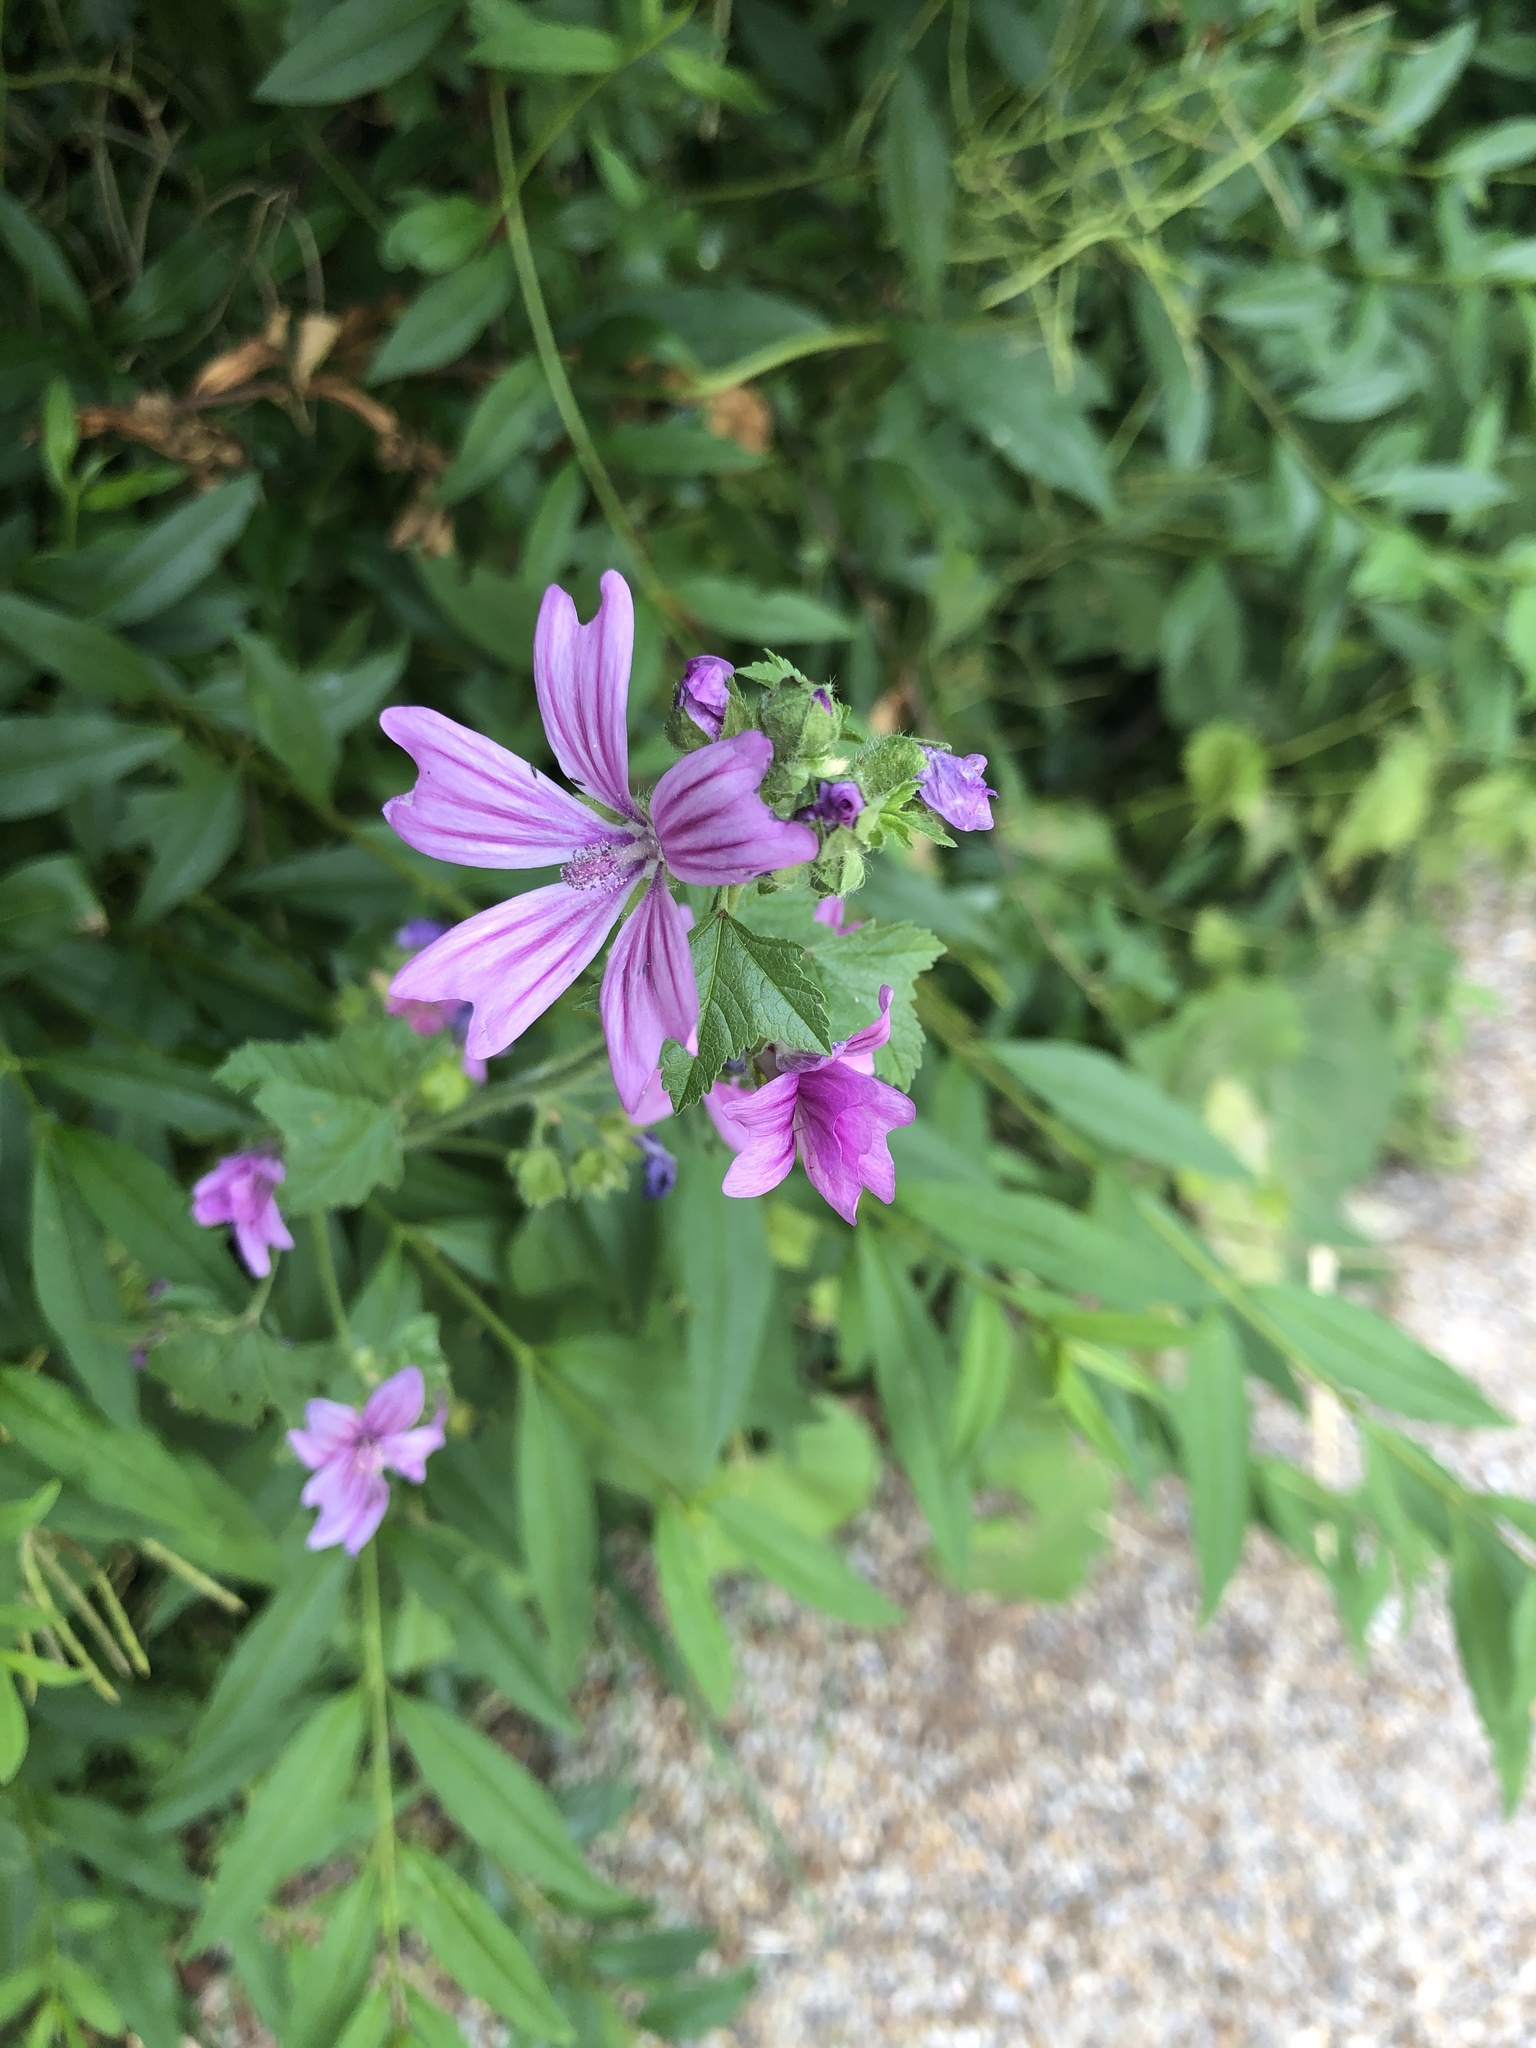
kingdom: Plantae
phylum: Tracheophyta
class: Magnoliopsida
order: Malvales
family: Malvaceae
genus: Malva
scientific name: Malva sylvestris
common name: Common mallow
